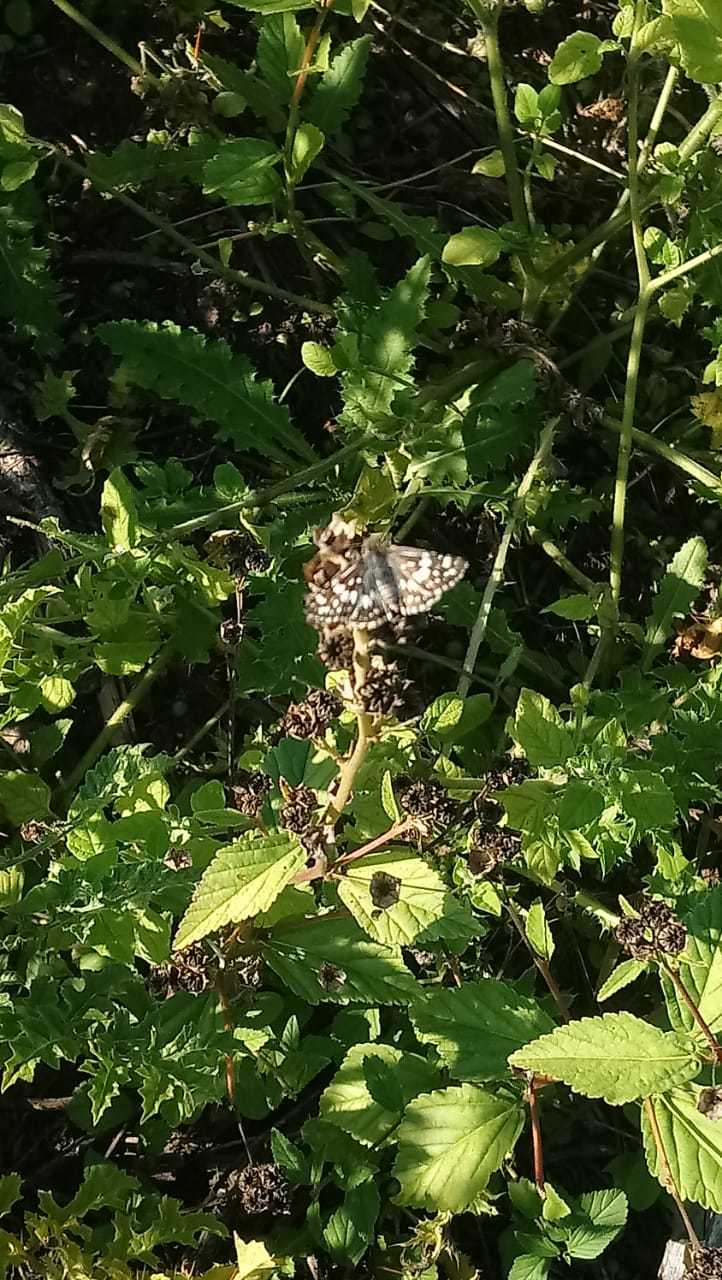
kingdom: Animalia
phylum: Arthropoda
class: Insecta
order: Lepidoptera
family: Hesperiidae
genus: Burnsius
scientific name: Burnsius orcynoides
